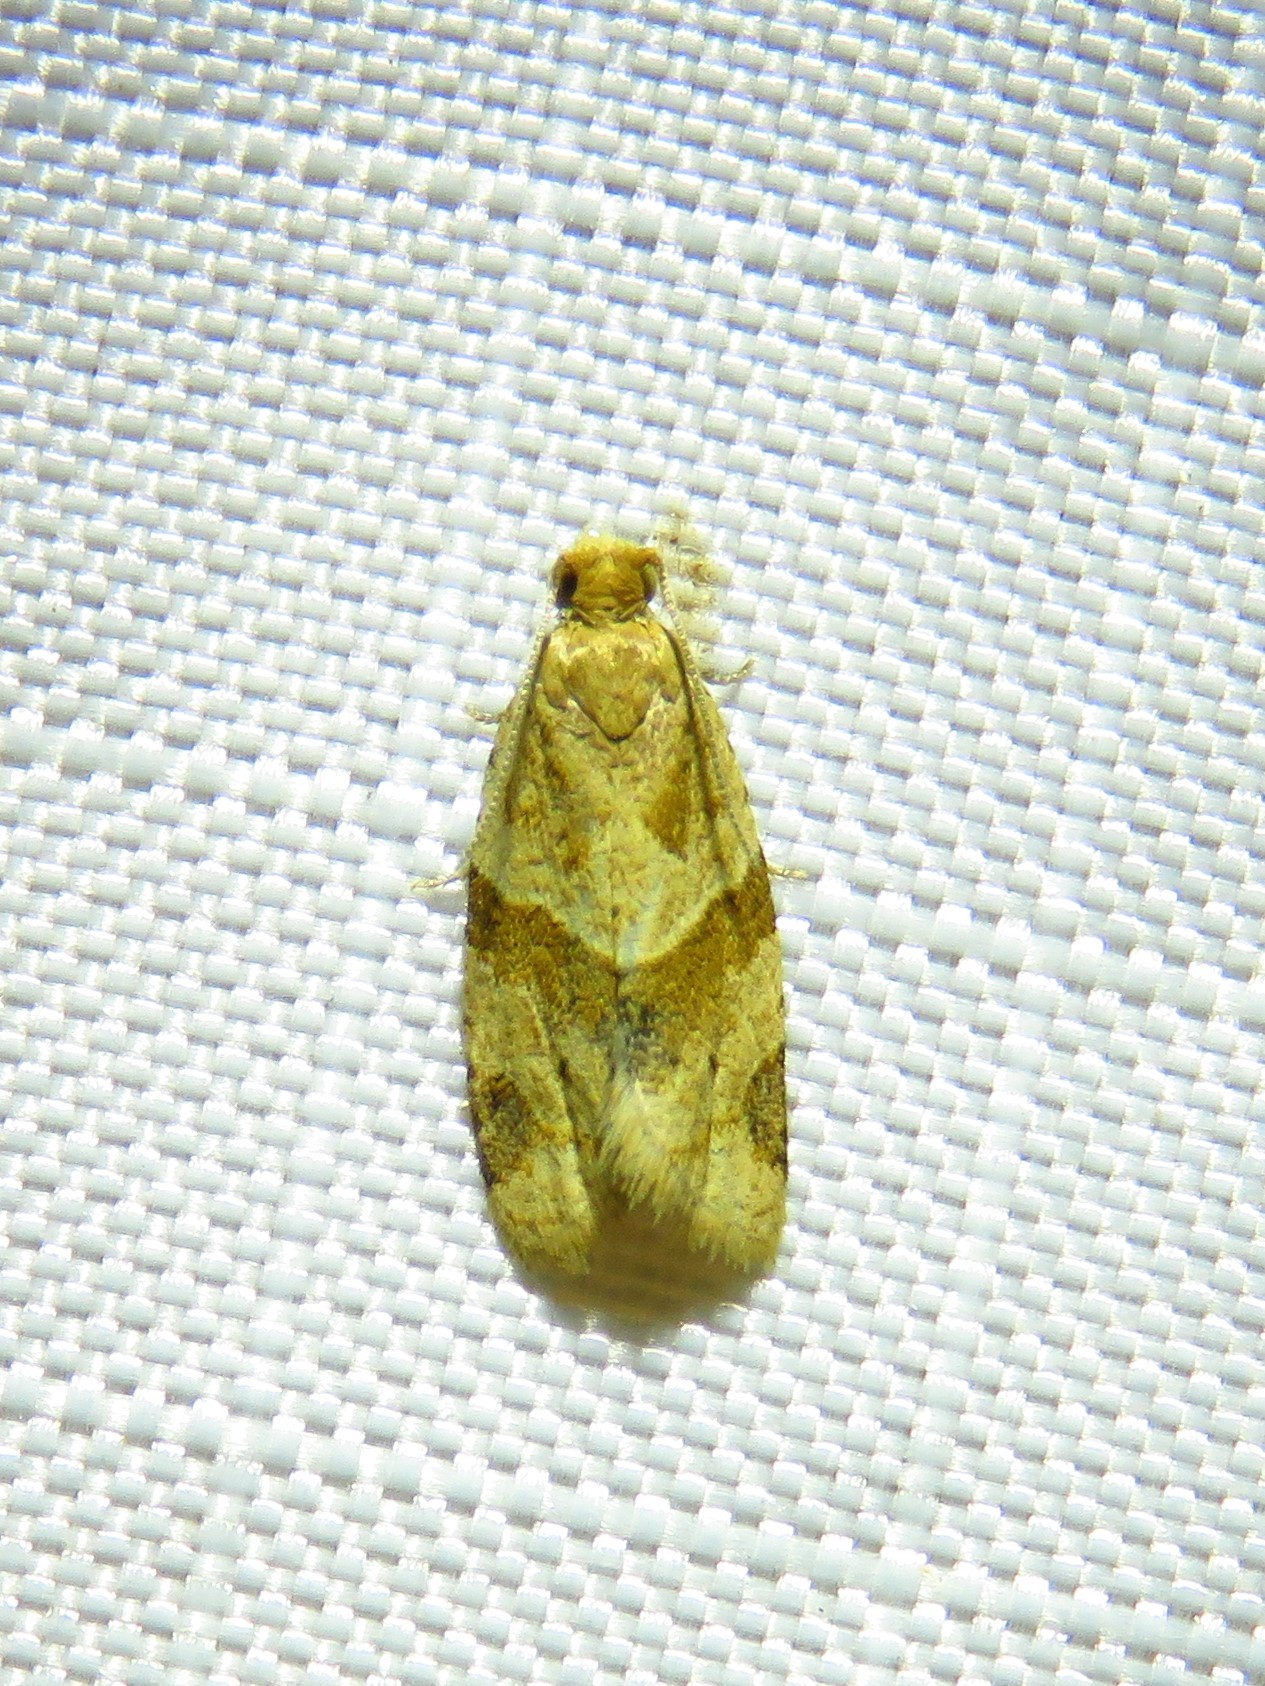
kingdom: Animalia
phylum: Arthropoda
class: Insecta
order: Lepidoptera
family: Tortricidae
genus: Clepsis
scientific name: Clepsis peritana
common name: Garden tortrix
